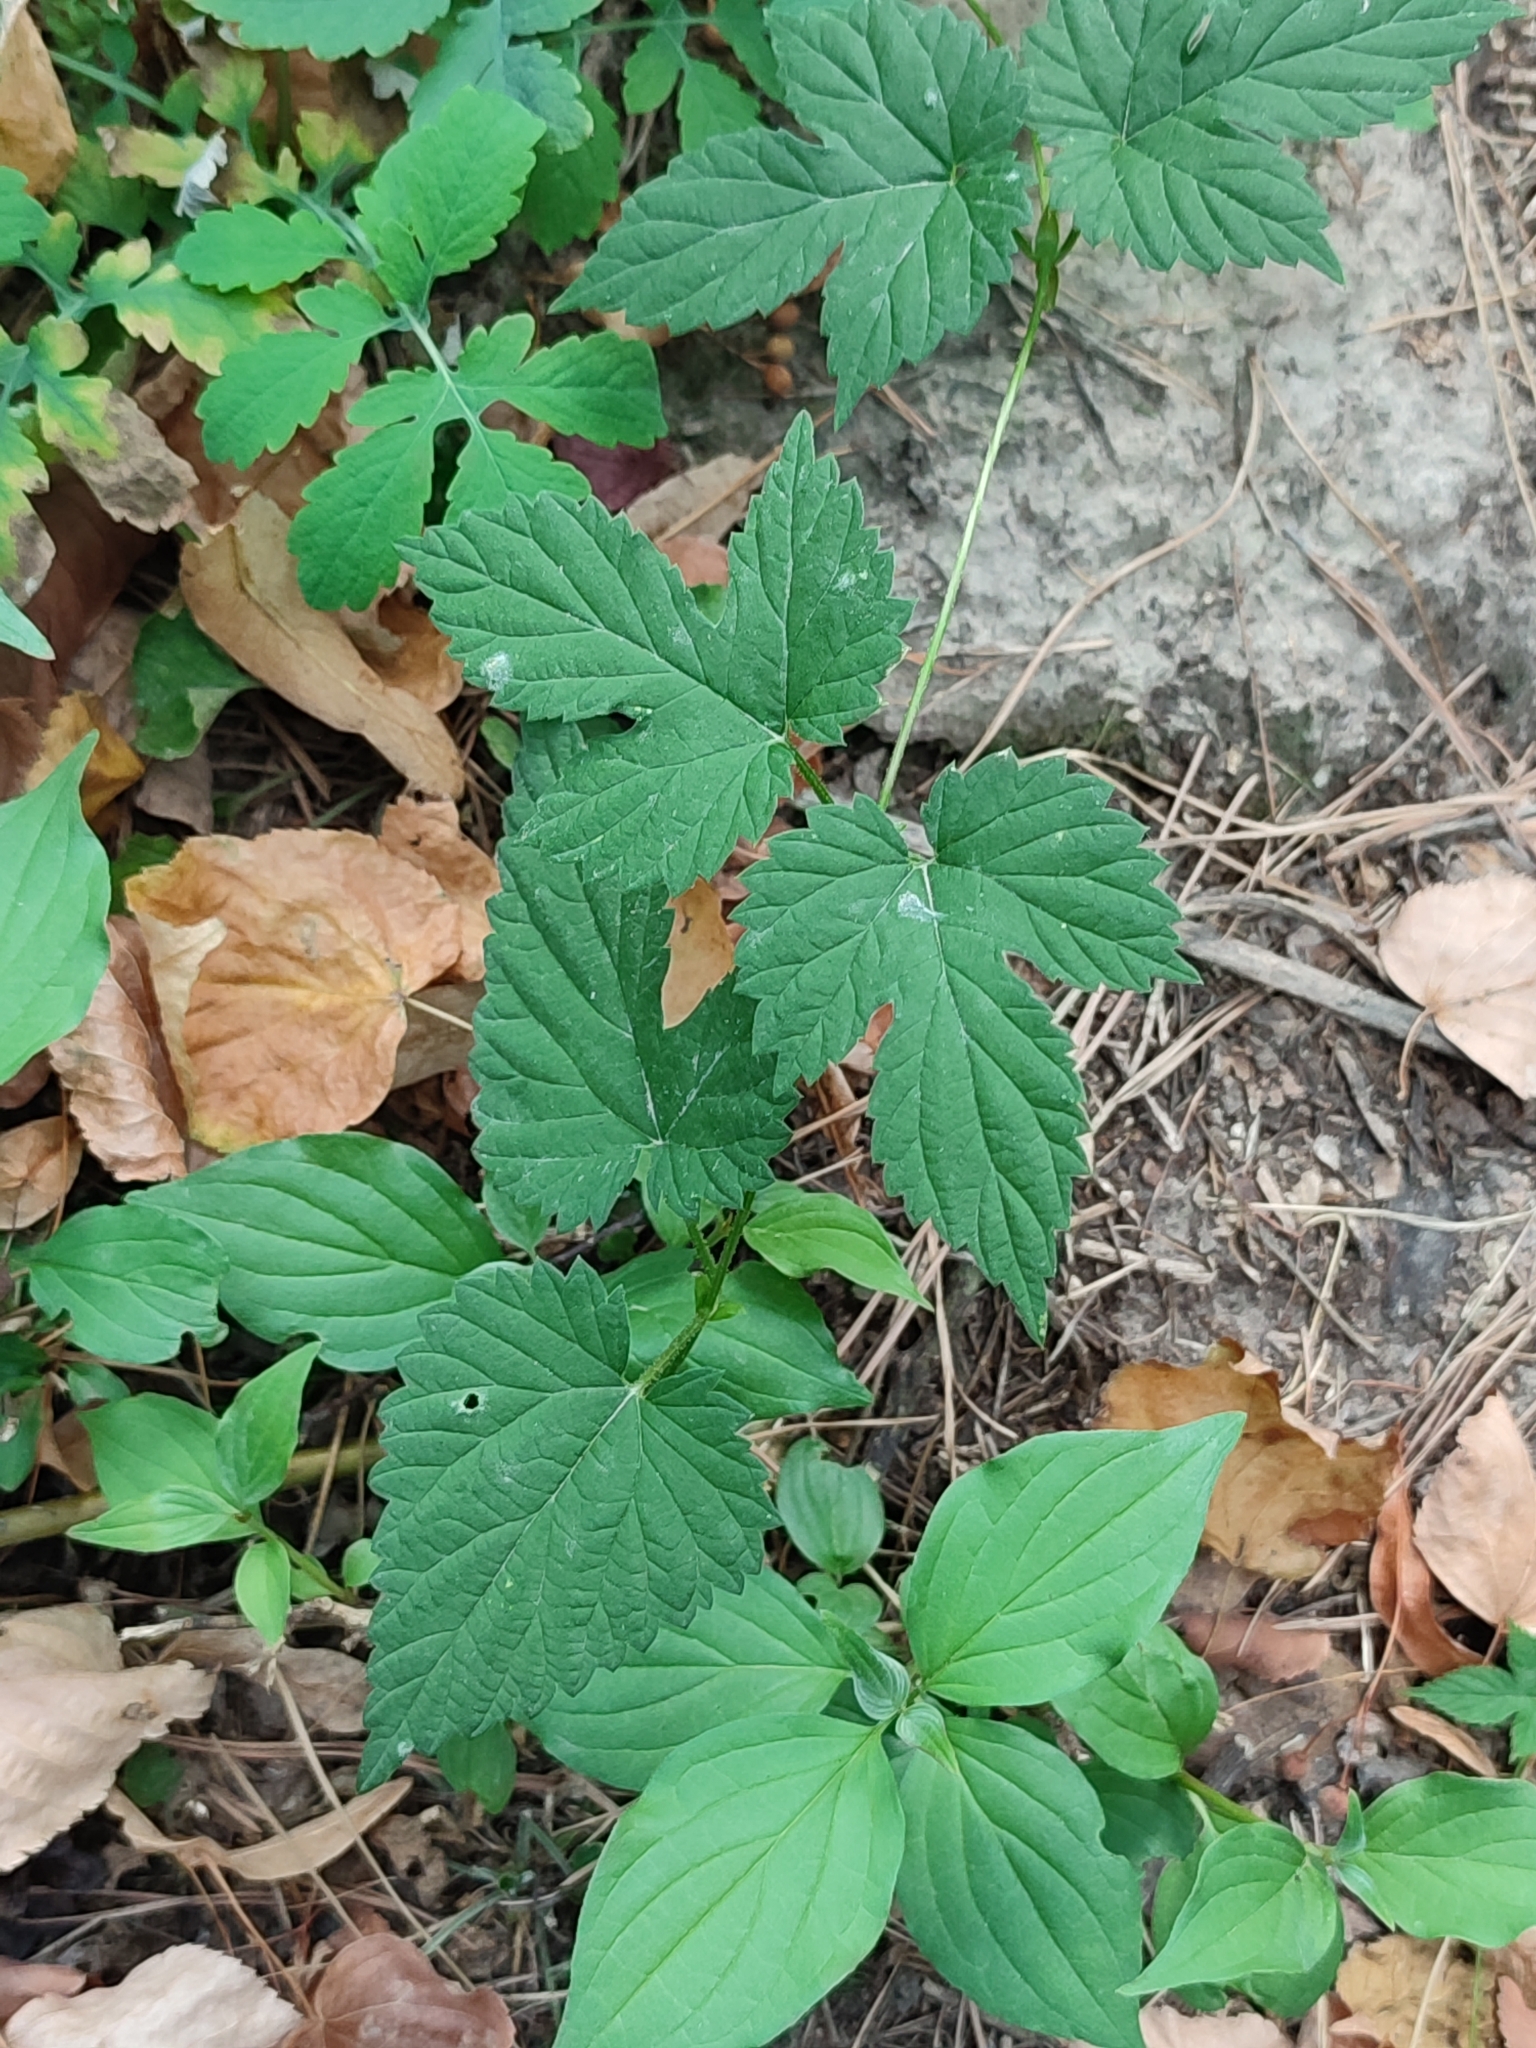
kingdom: Plantae
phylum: Tracheophyta
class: Magnoliopsida
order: Rosales
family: Cannabaceae
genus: Humulus
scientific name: Humulus lupulus
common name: Hop
